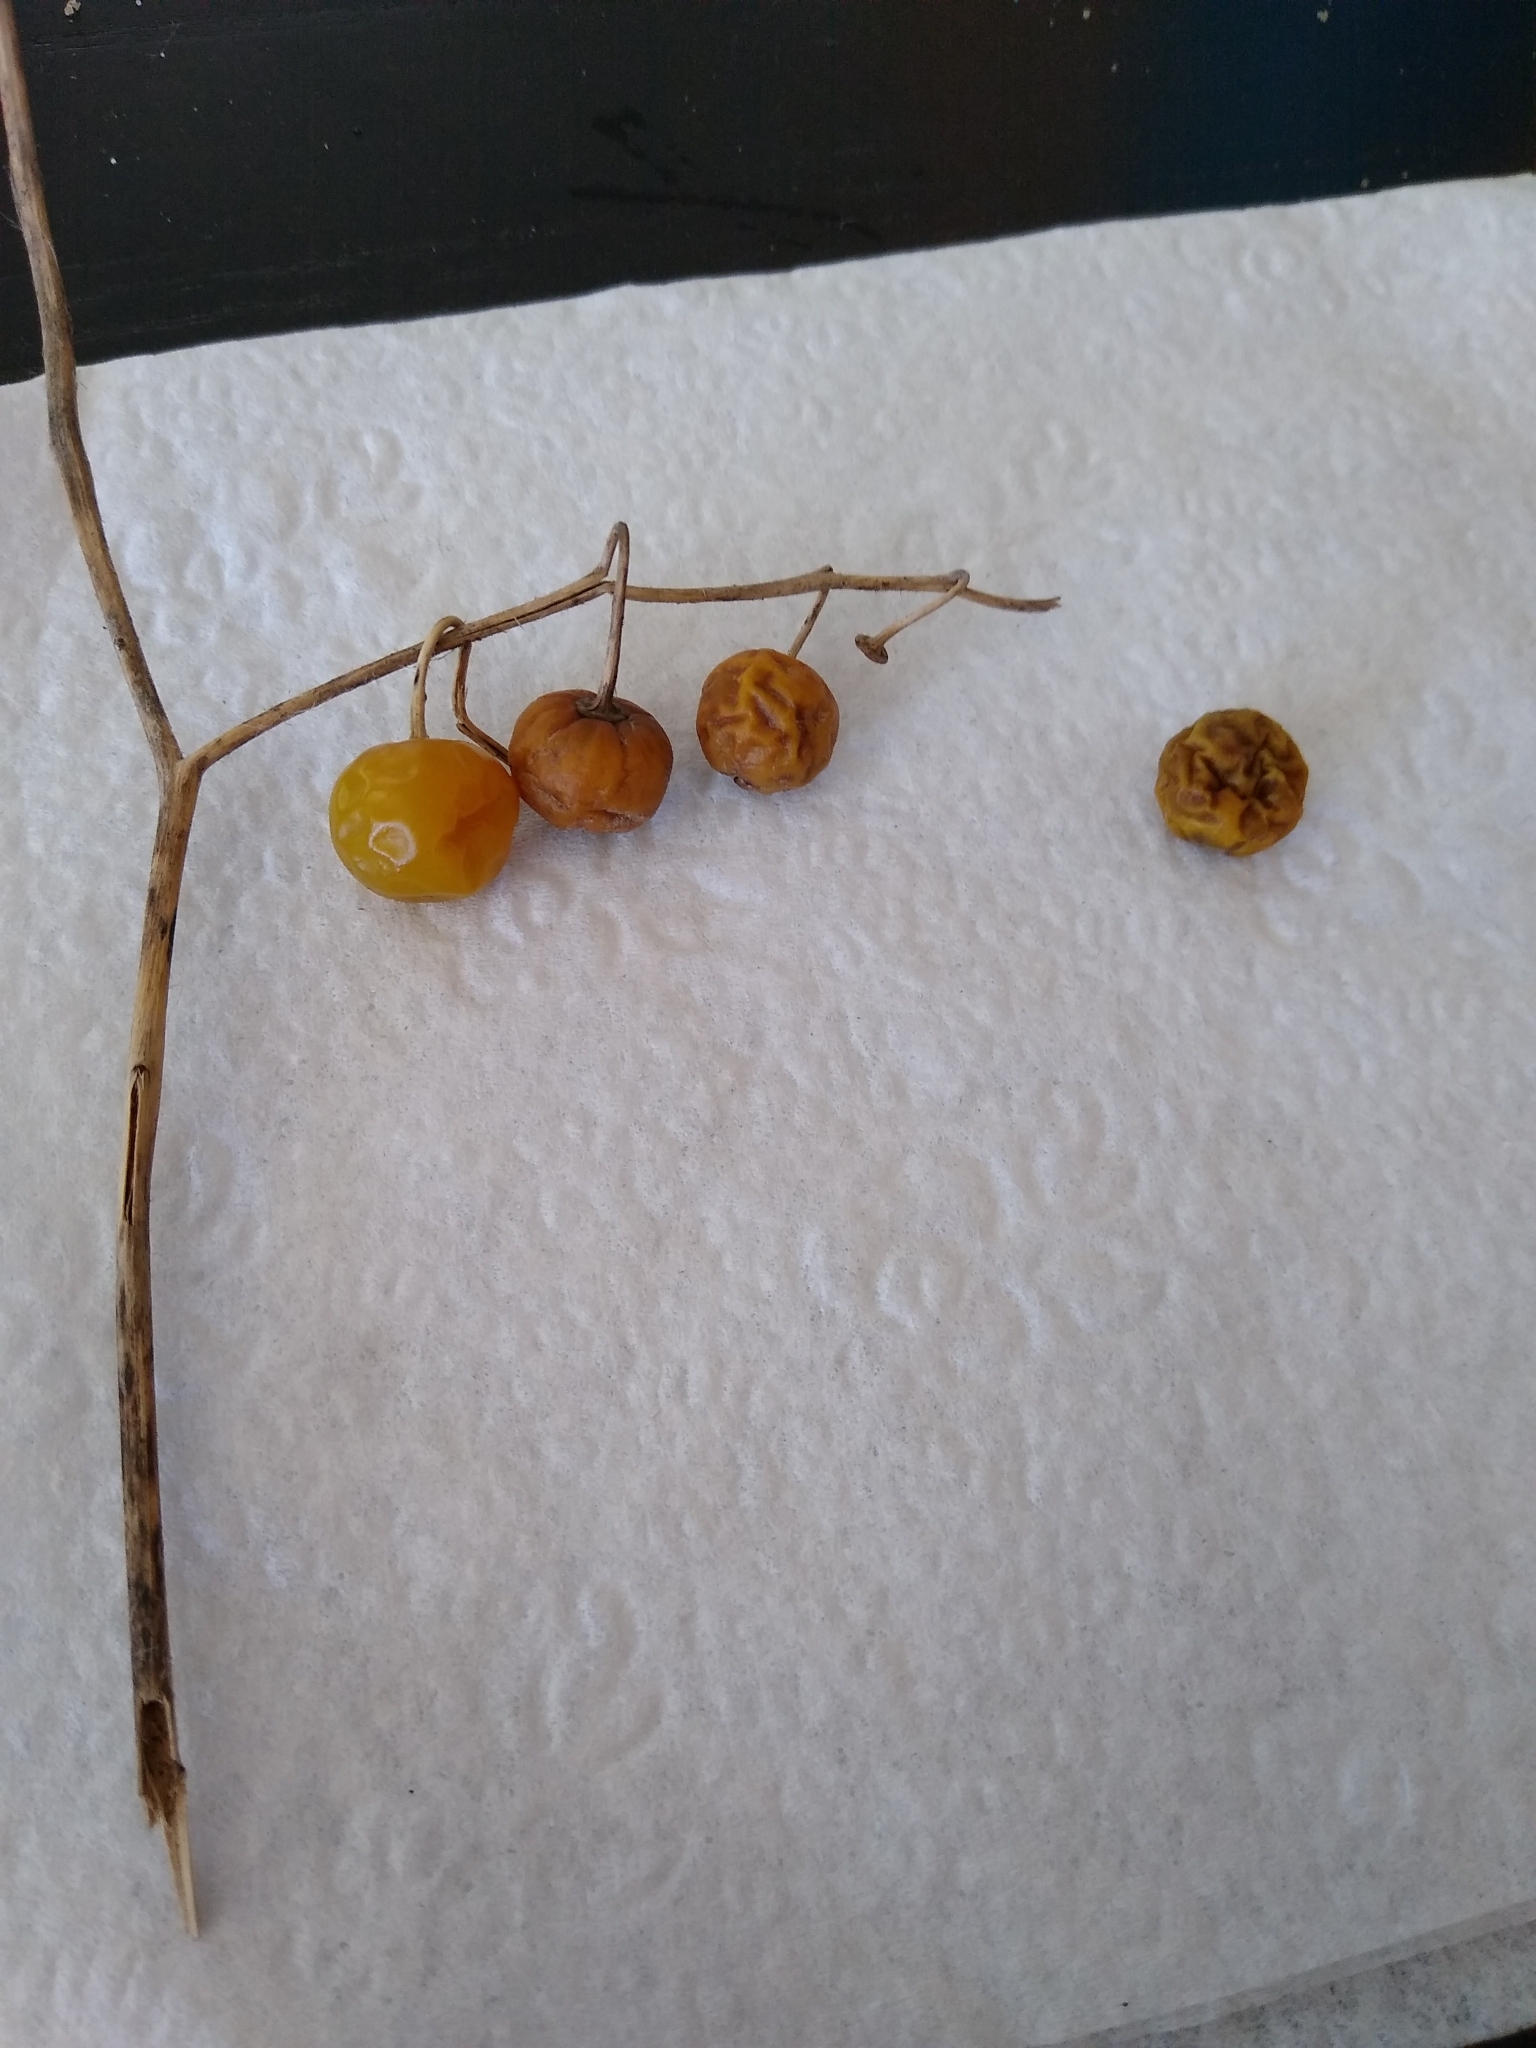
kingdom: Plantae
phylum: Tracheophyta
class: Magnoliopsida
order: Solanales
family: Solanaceae
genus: Solanum
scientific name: Solanum carolinense
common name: Horse-nettle
